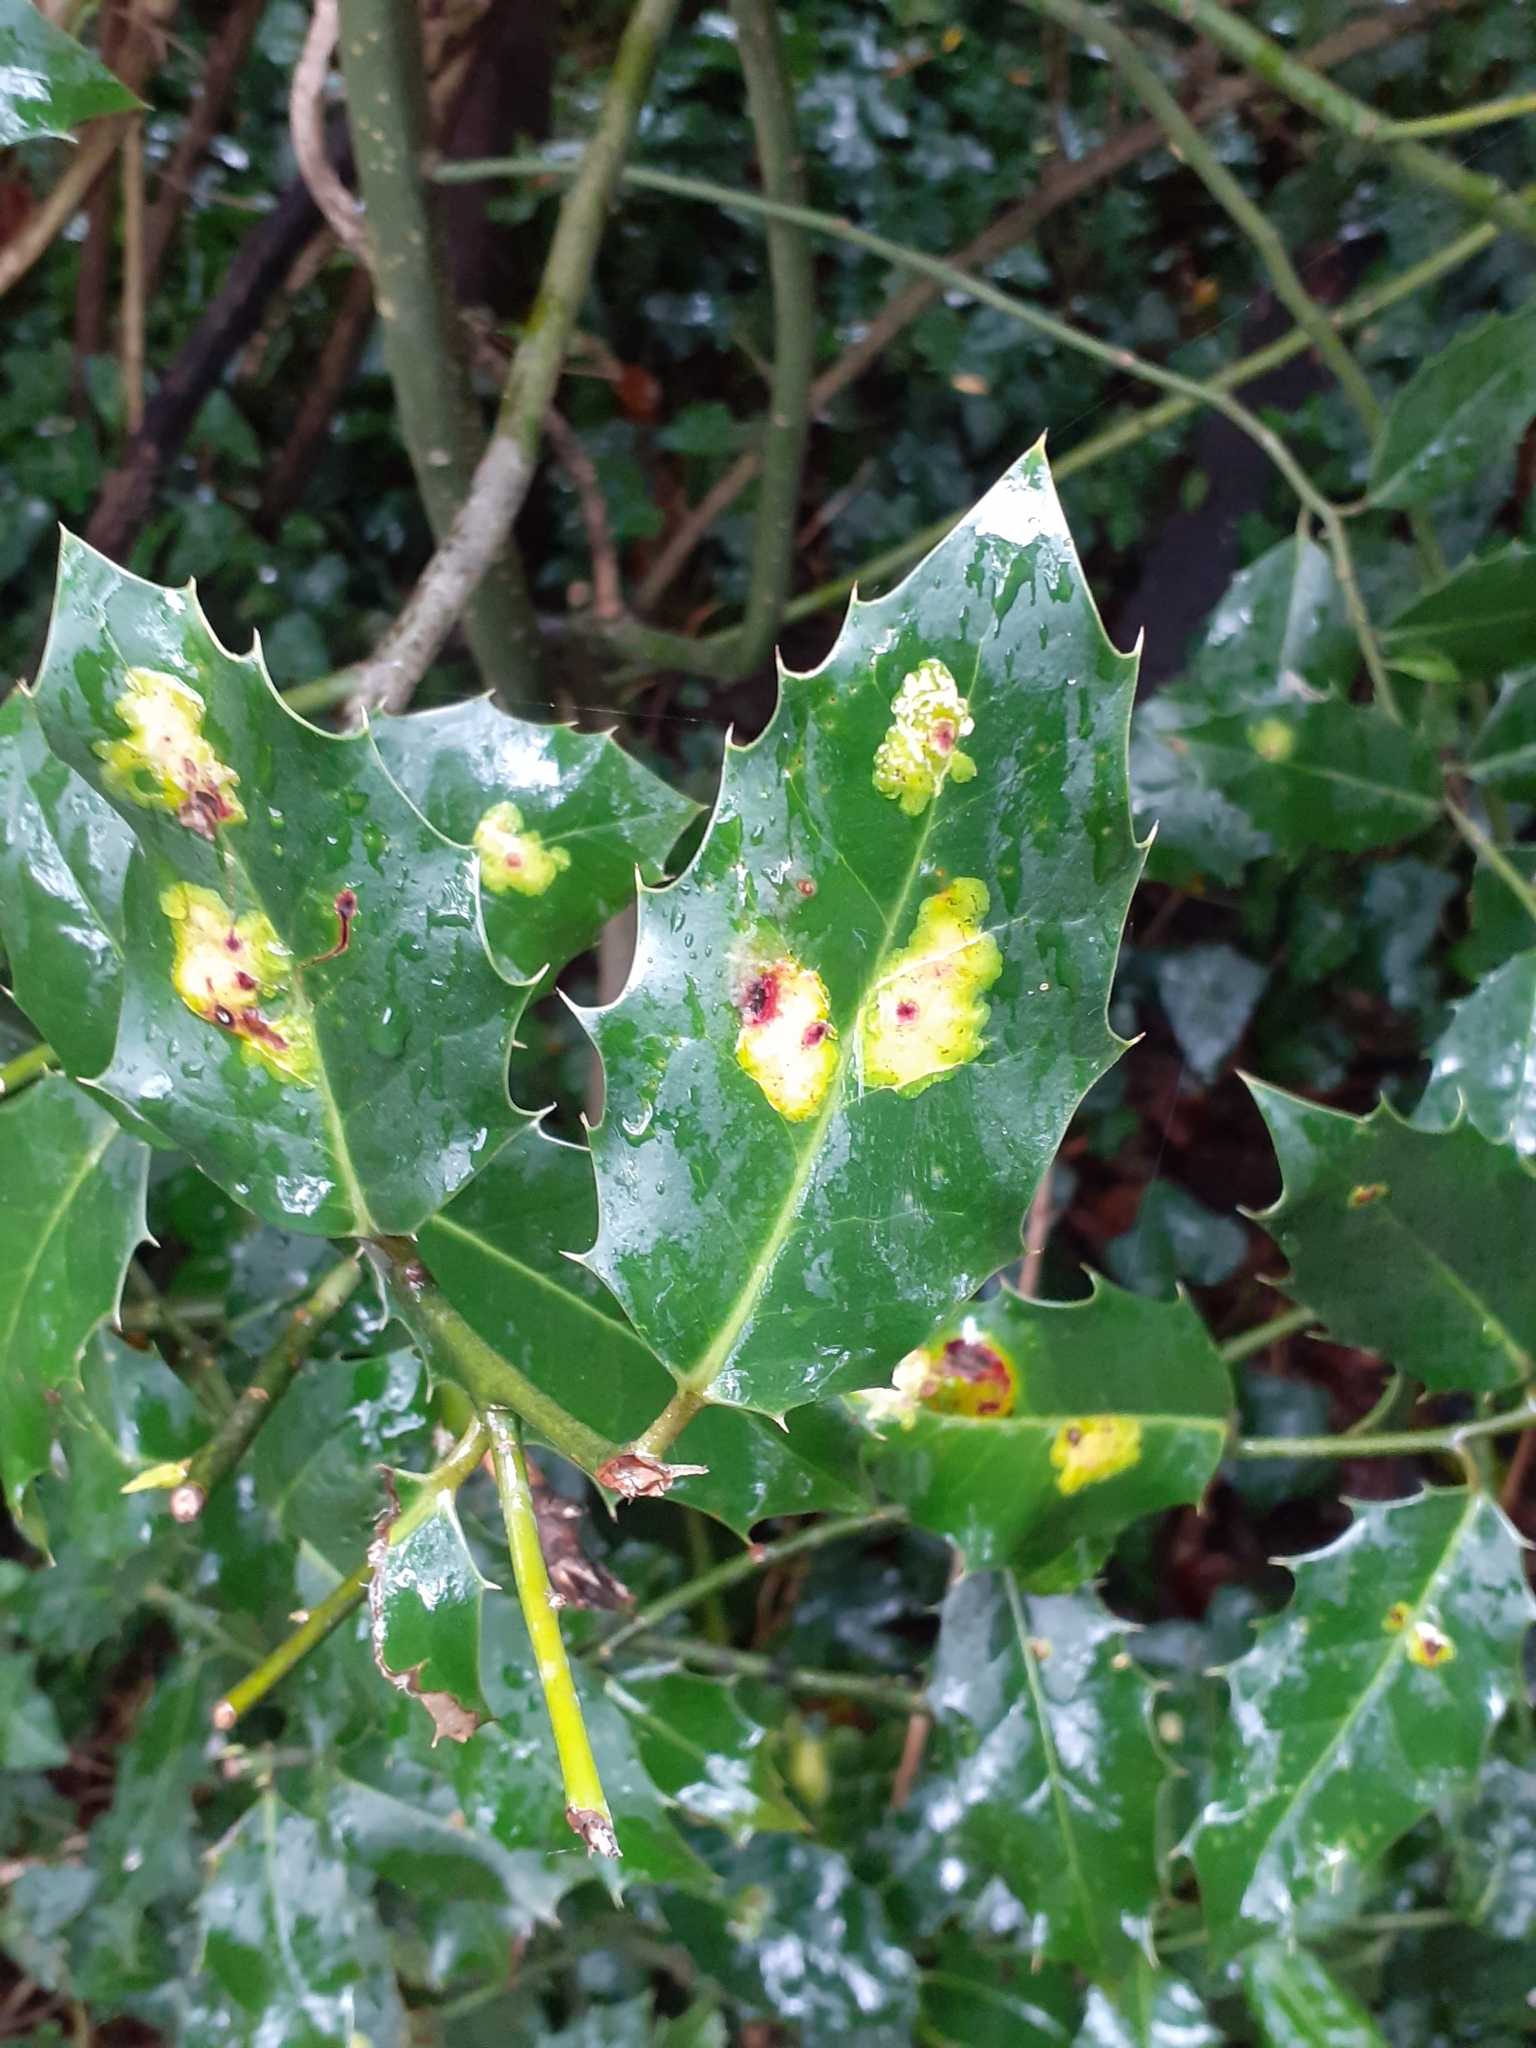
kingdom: Animalia
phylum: Arthropoda
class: Insecta
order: Diptera
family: Agromyzidae
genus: Phytomyza
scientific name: Phytomyza ilicis
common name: Holly leafminer
